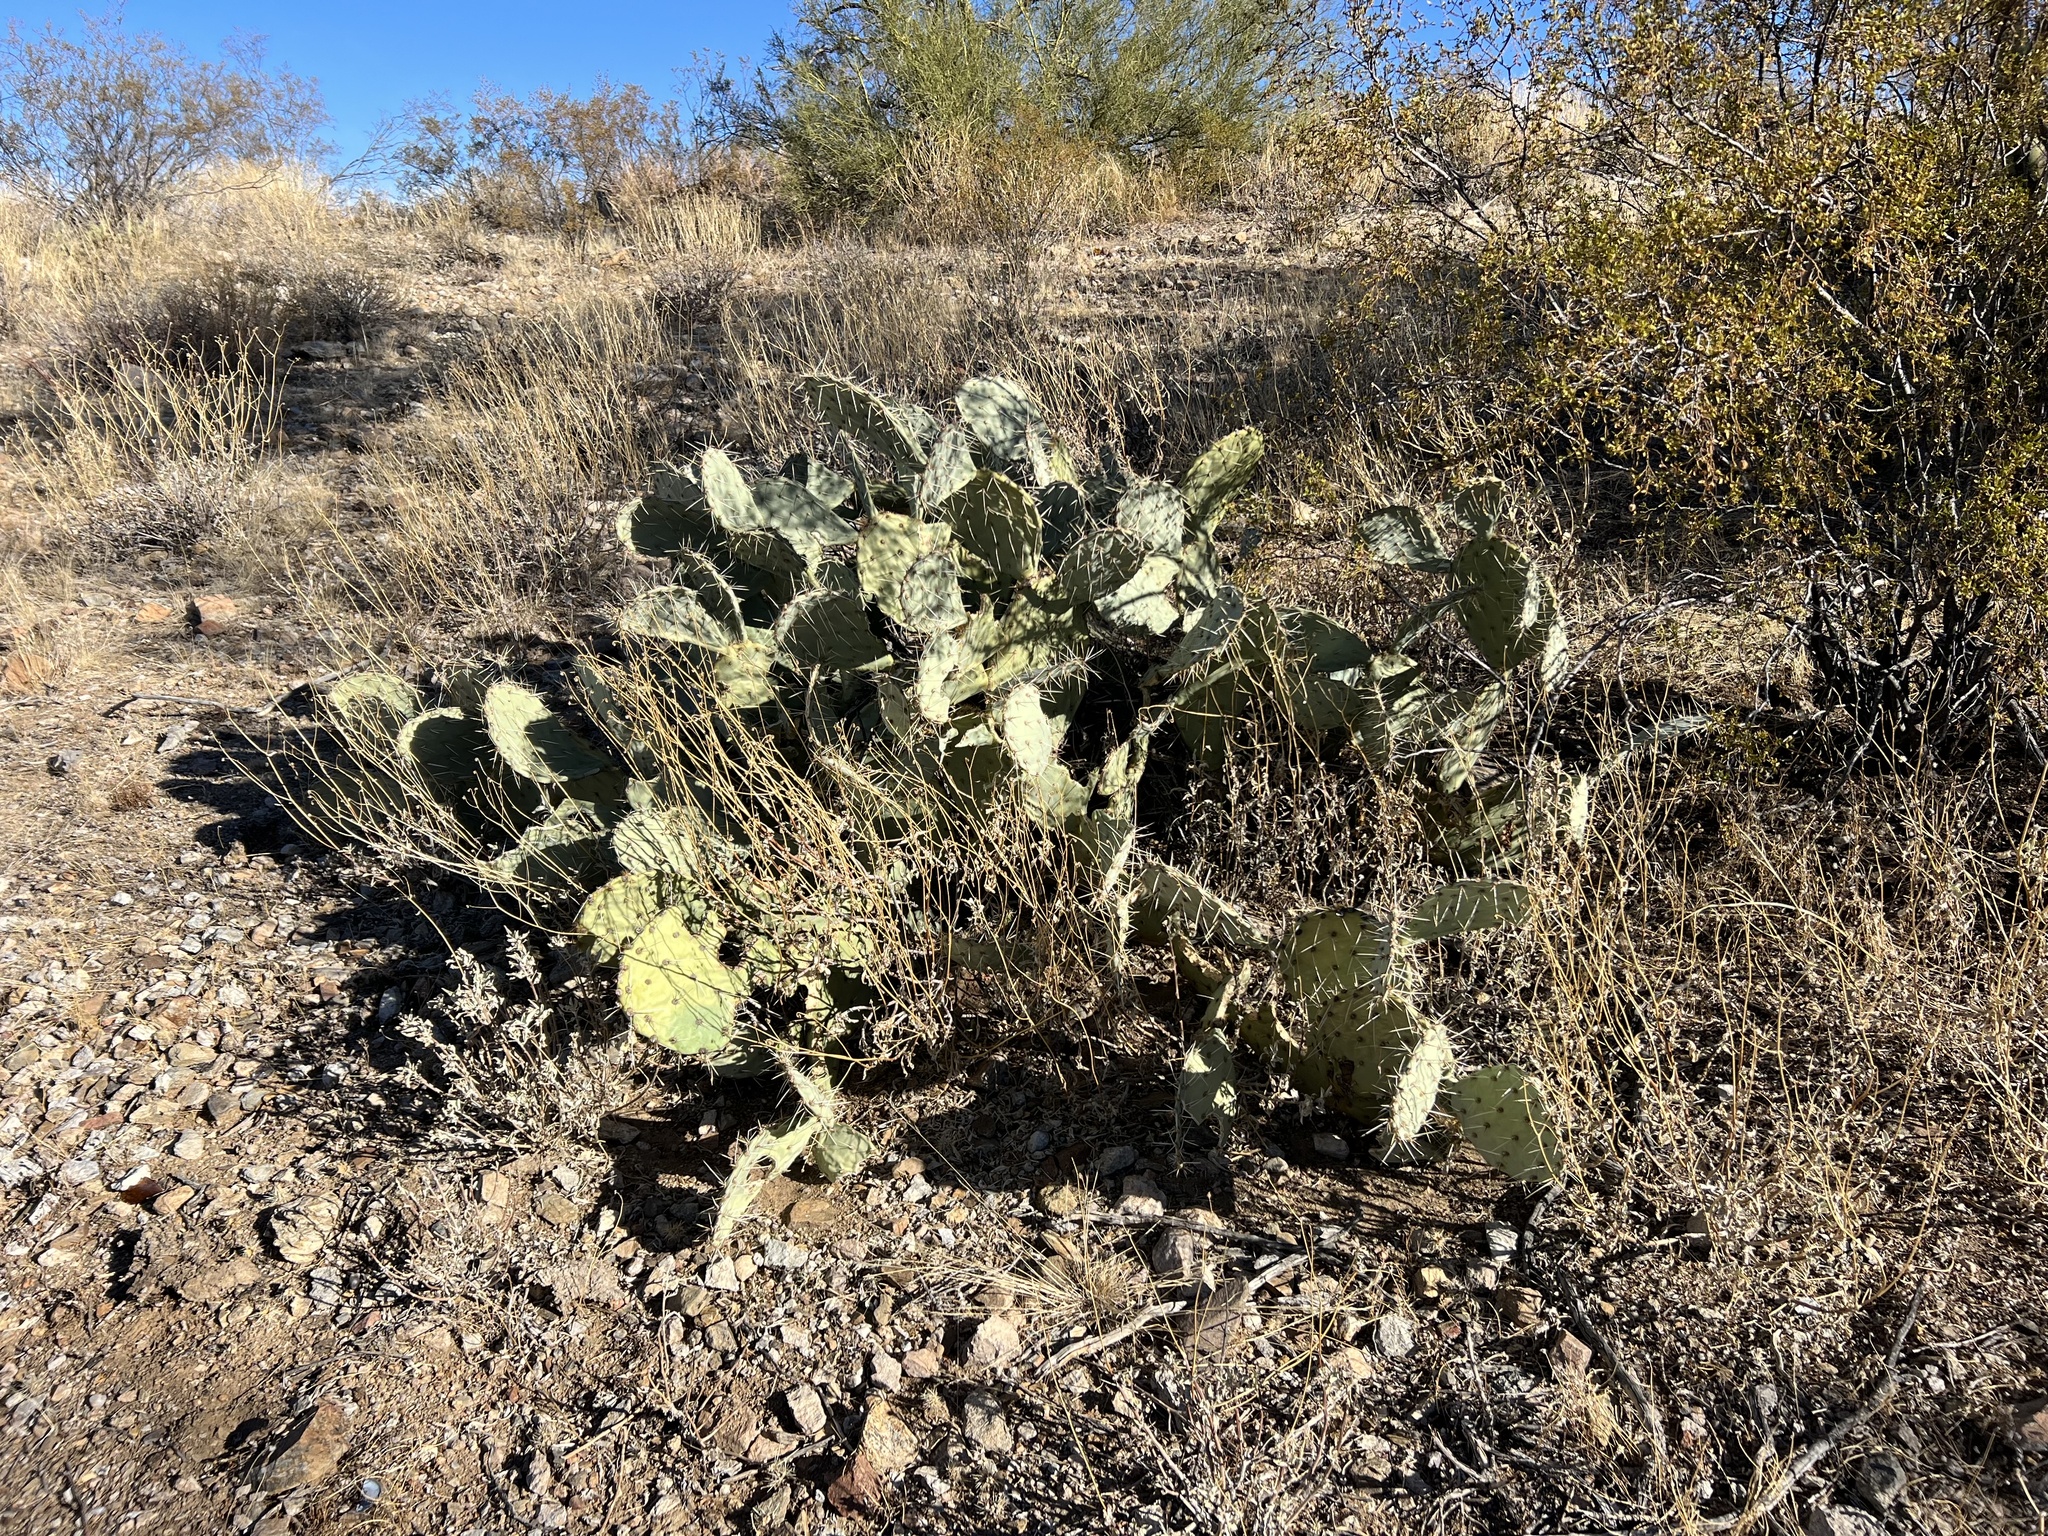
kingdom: Plantae
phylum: Tracheophyta
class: Magnoliopsida
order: Caryophyllales
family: Cactaceae
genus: Opuntia
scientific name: Opuntia engelmannii
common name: Cactus-apple
